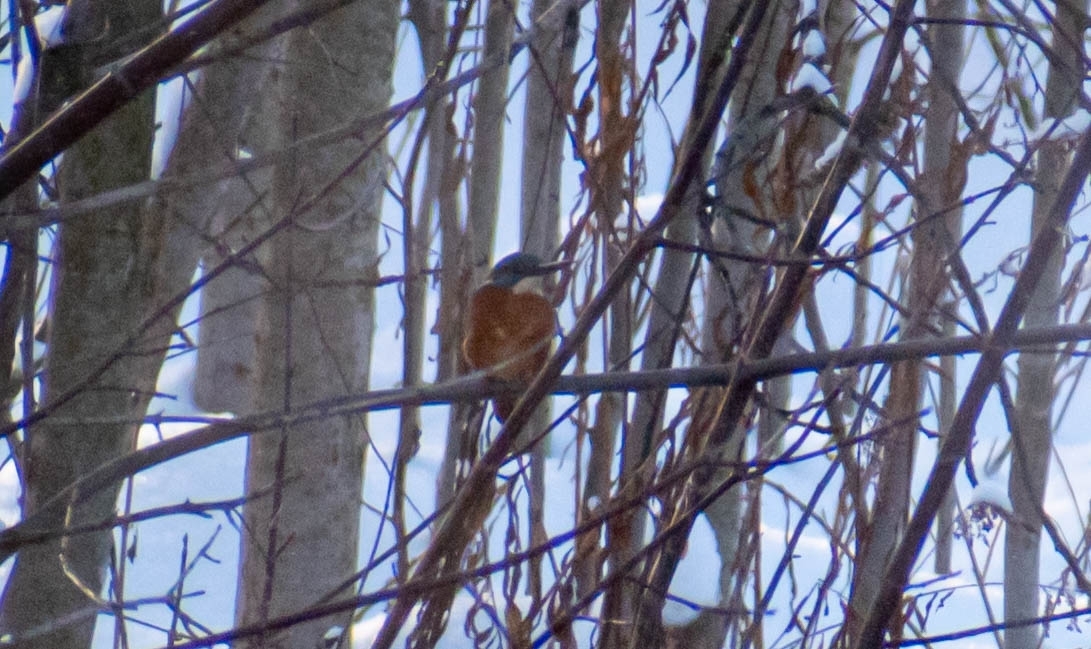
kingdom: Animalia
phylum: Chordata
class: Aves
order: Coraciiformes
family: Alcedinidae
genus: Alcedo
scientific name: Alcedo atthis
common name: Common kingfisher
